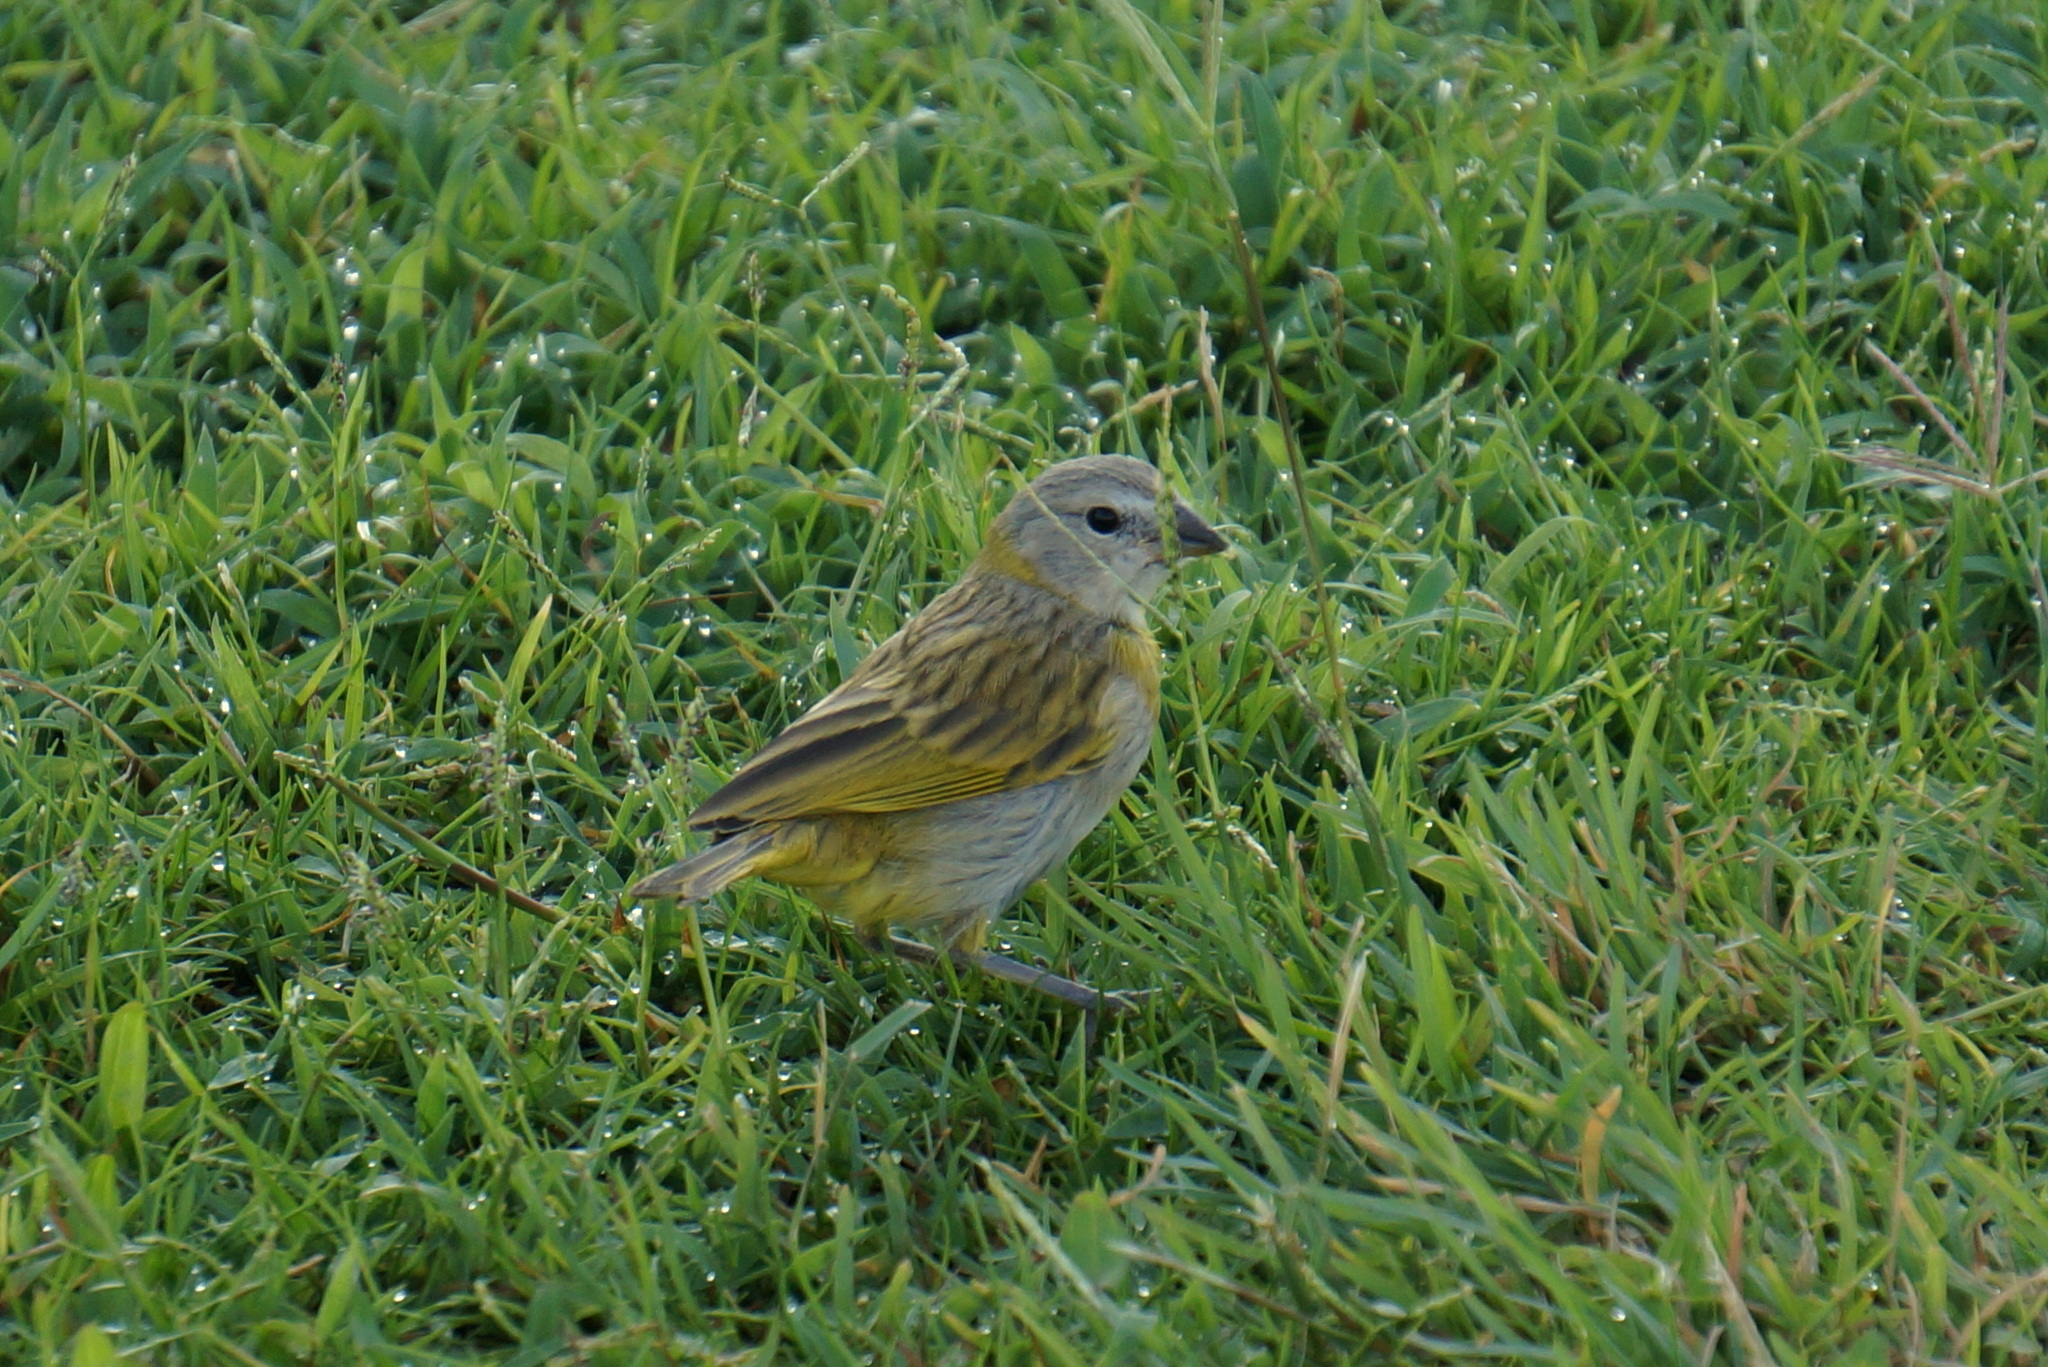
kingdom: Animalia
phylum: Chordata
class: Aves
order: Passeriformes
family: Thraupidae
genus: Sicalis
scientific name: Sicalis flaveola
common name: Saffron finch
